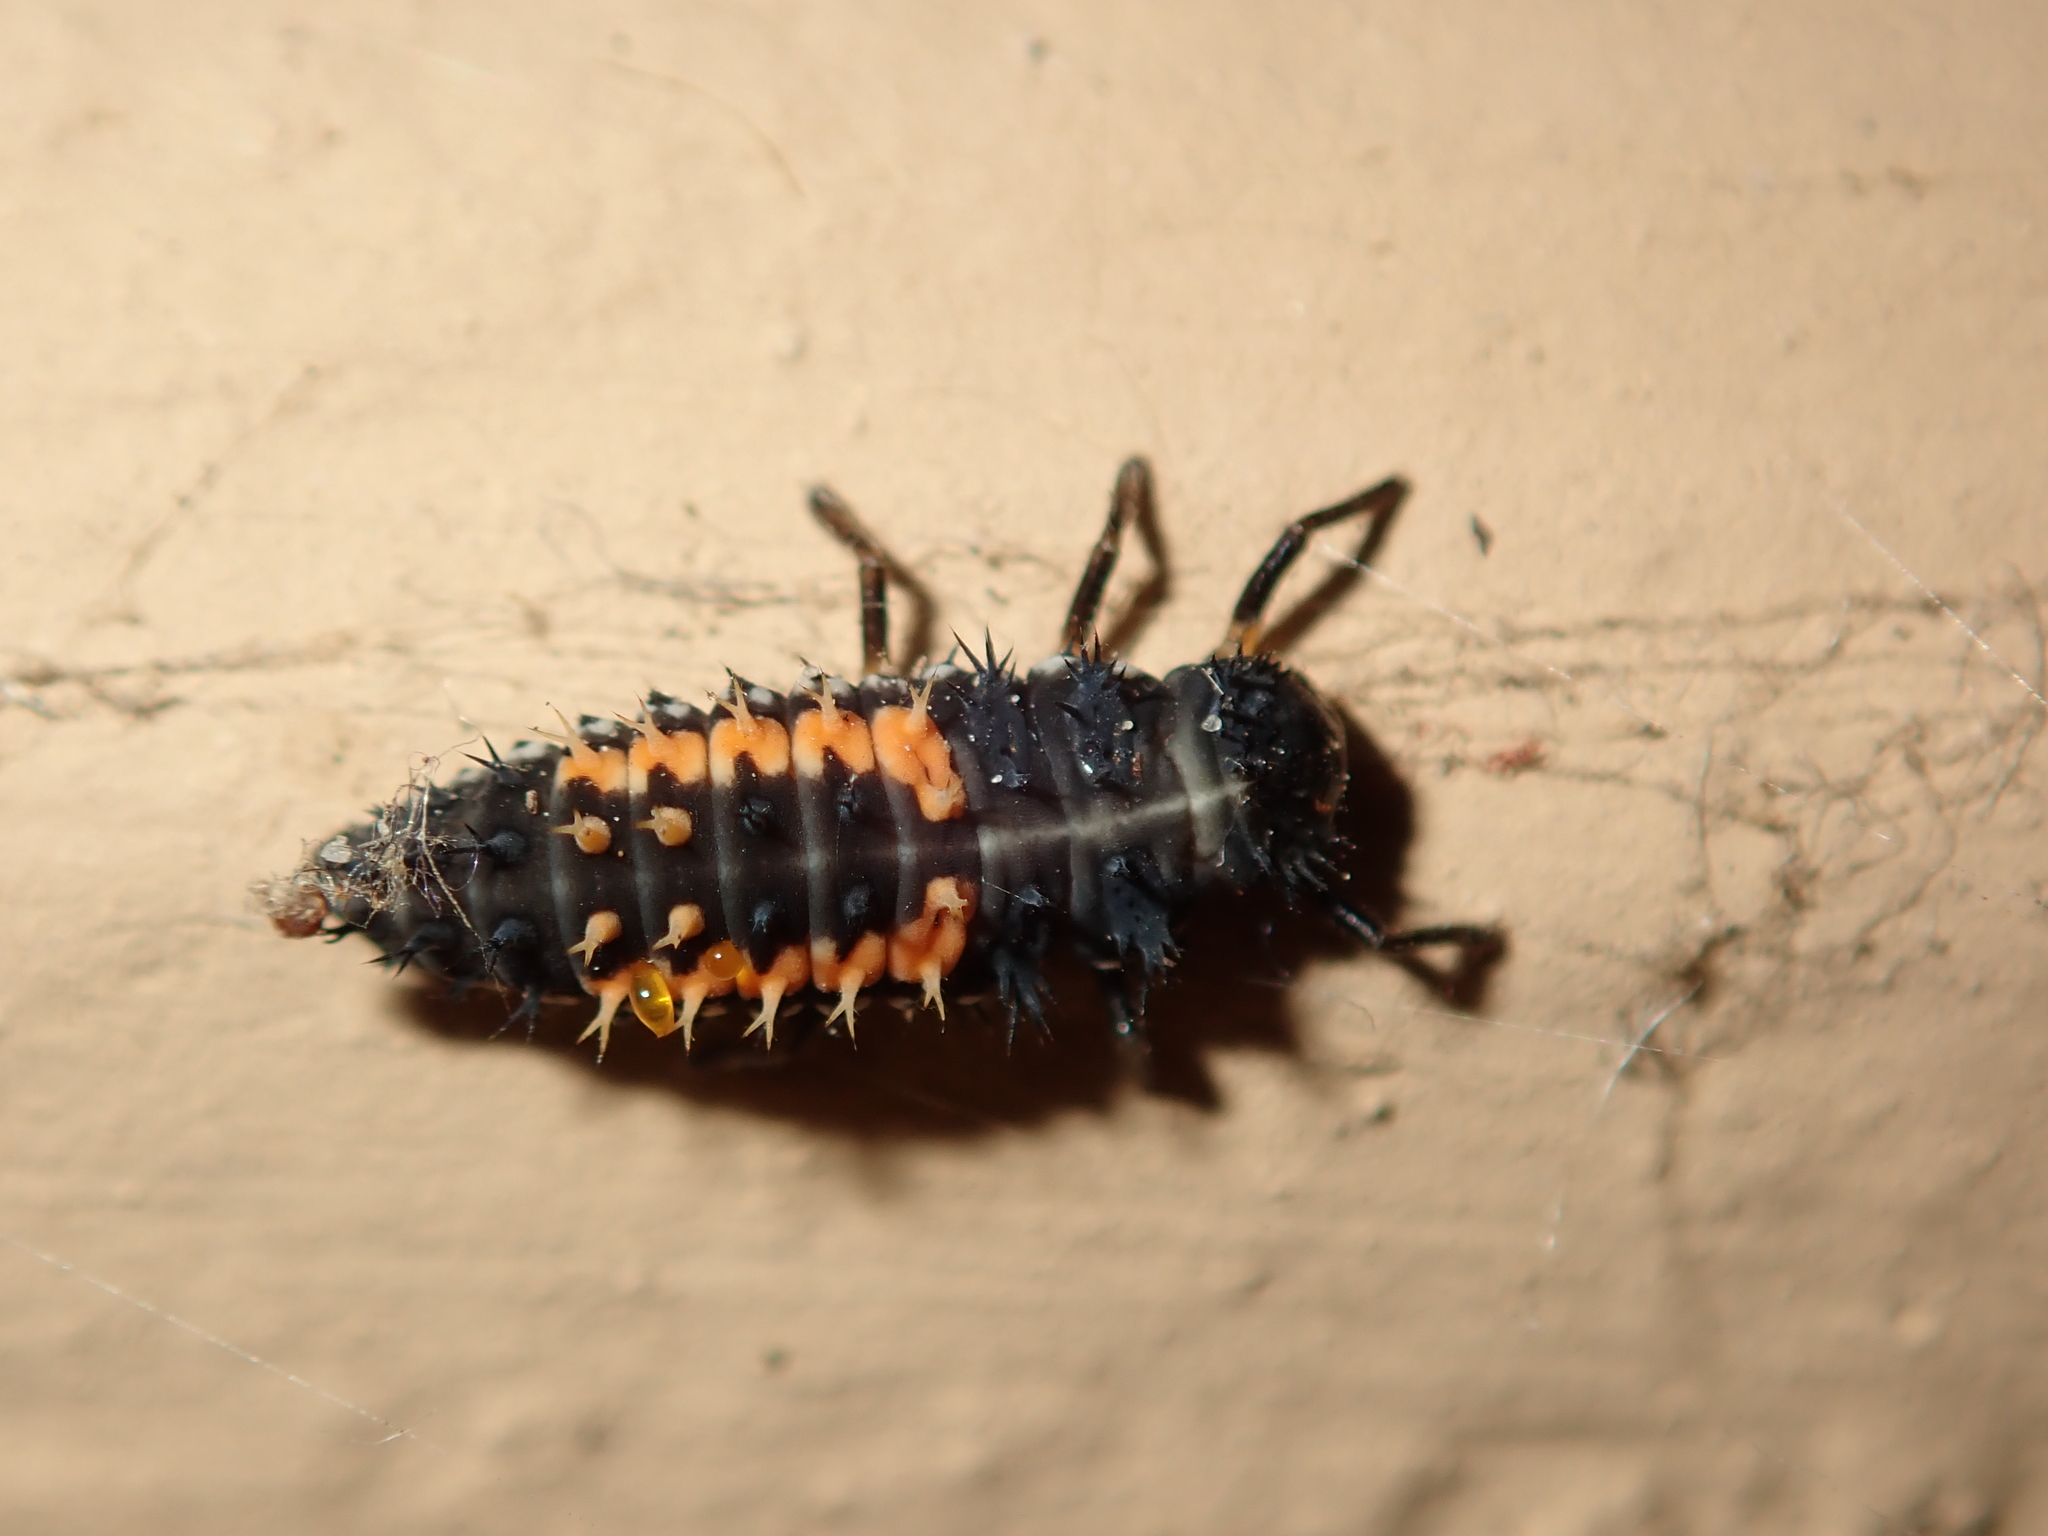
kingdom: Animalia
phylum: Arthropoda
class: Insecta
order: Coleoptera
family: Coccinellidae
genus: Harmonia
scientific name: Harmonia axyridis
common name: Harlequin ladybird
